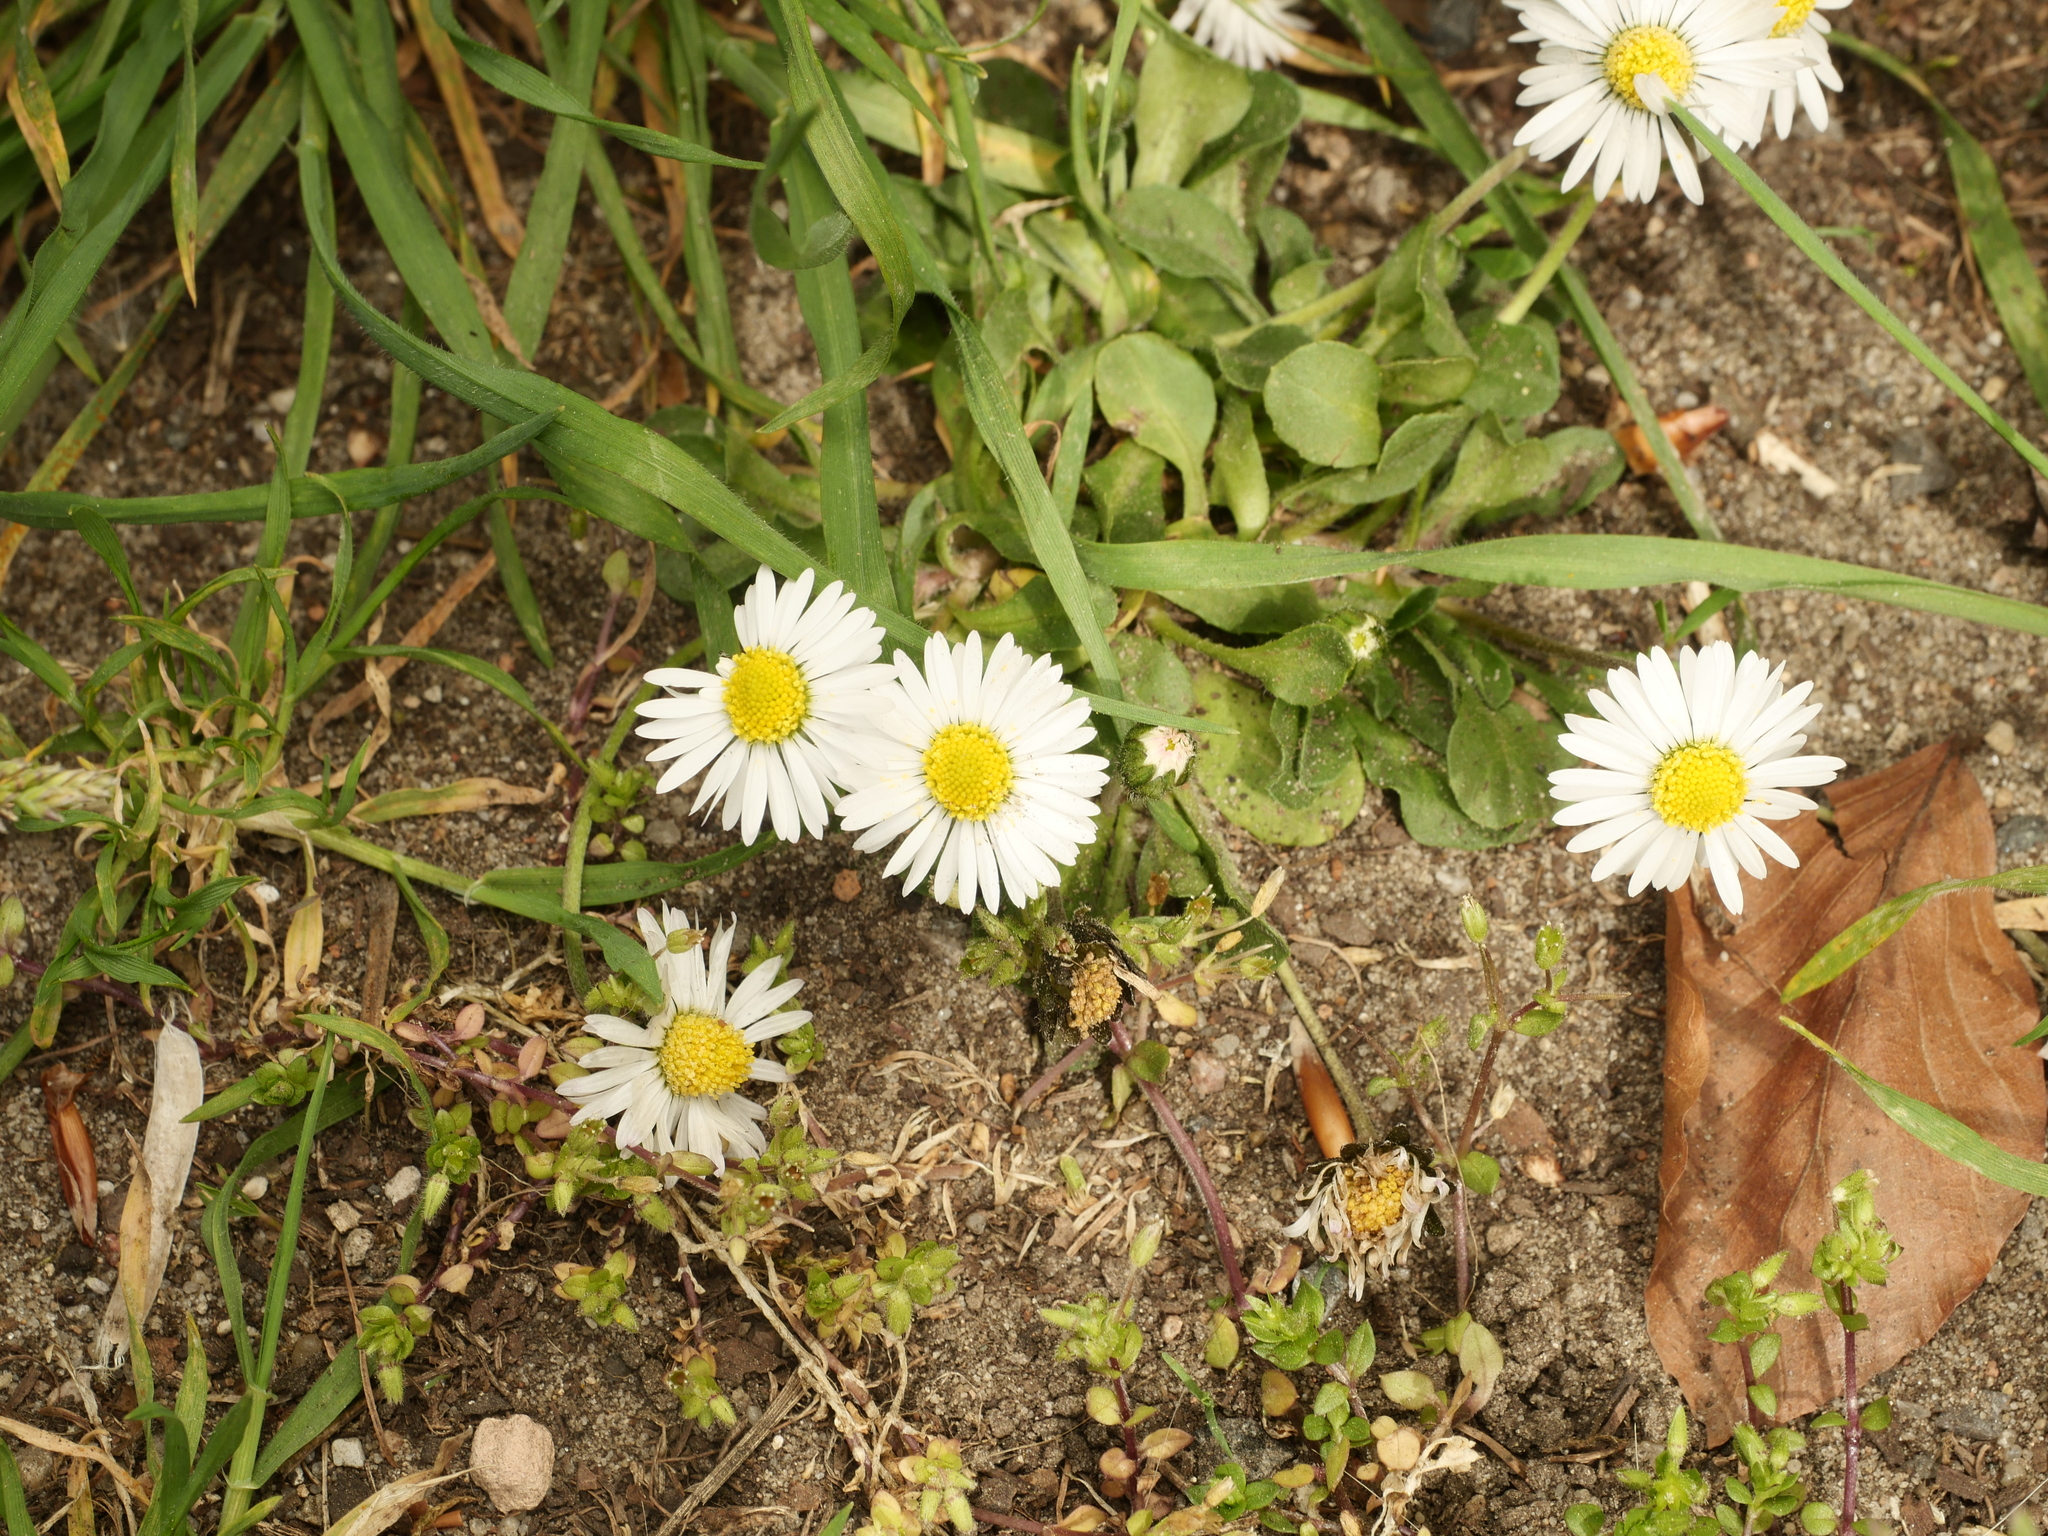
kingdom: Plantae
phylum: Tracheophyta
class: Magnoliopsida
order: Asterales
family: Asteraceae
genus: Bellis
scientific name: Bellis perennis
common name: Lawndaisy
